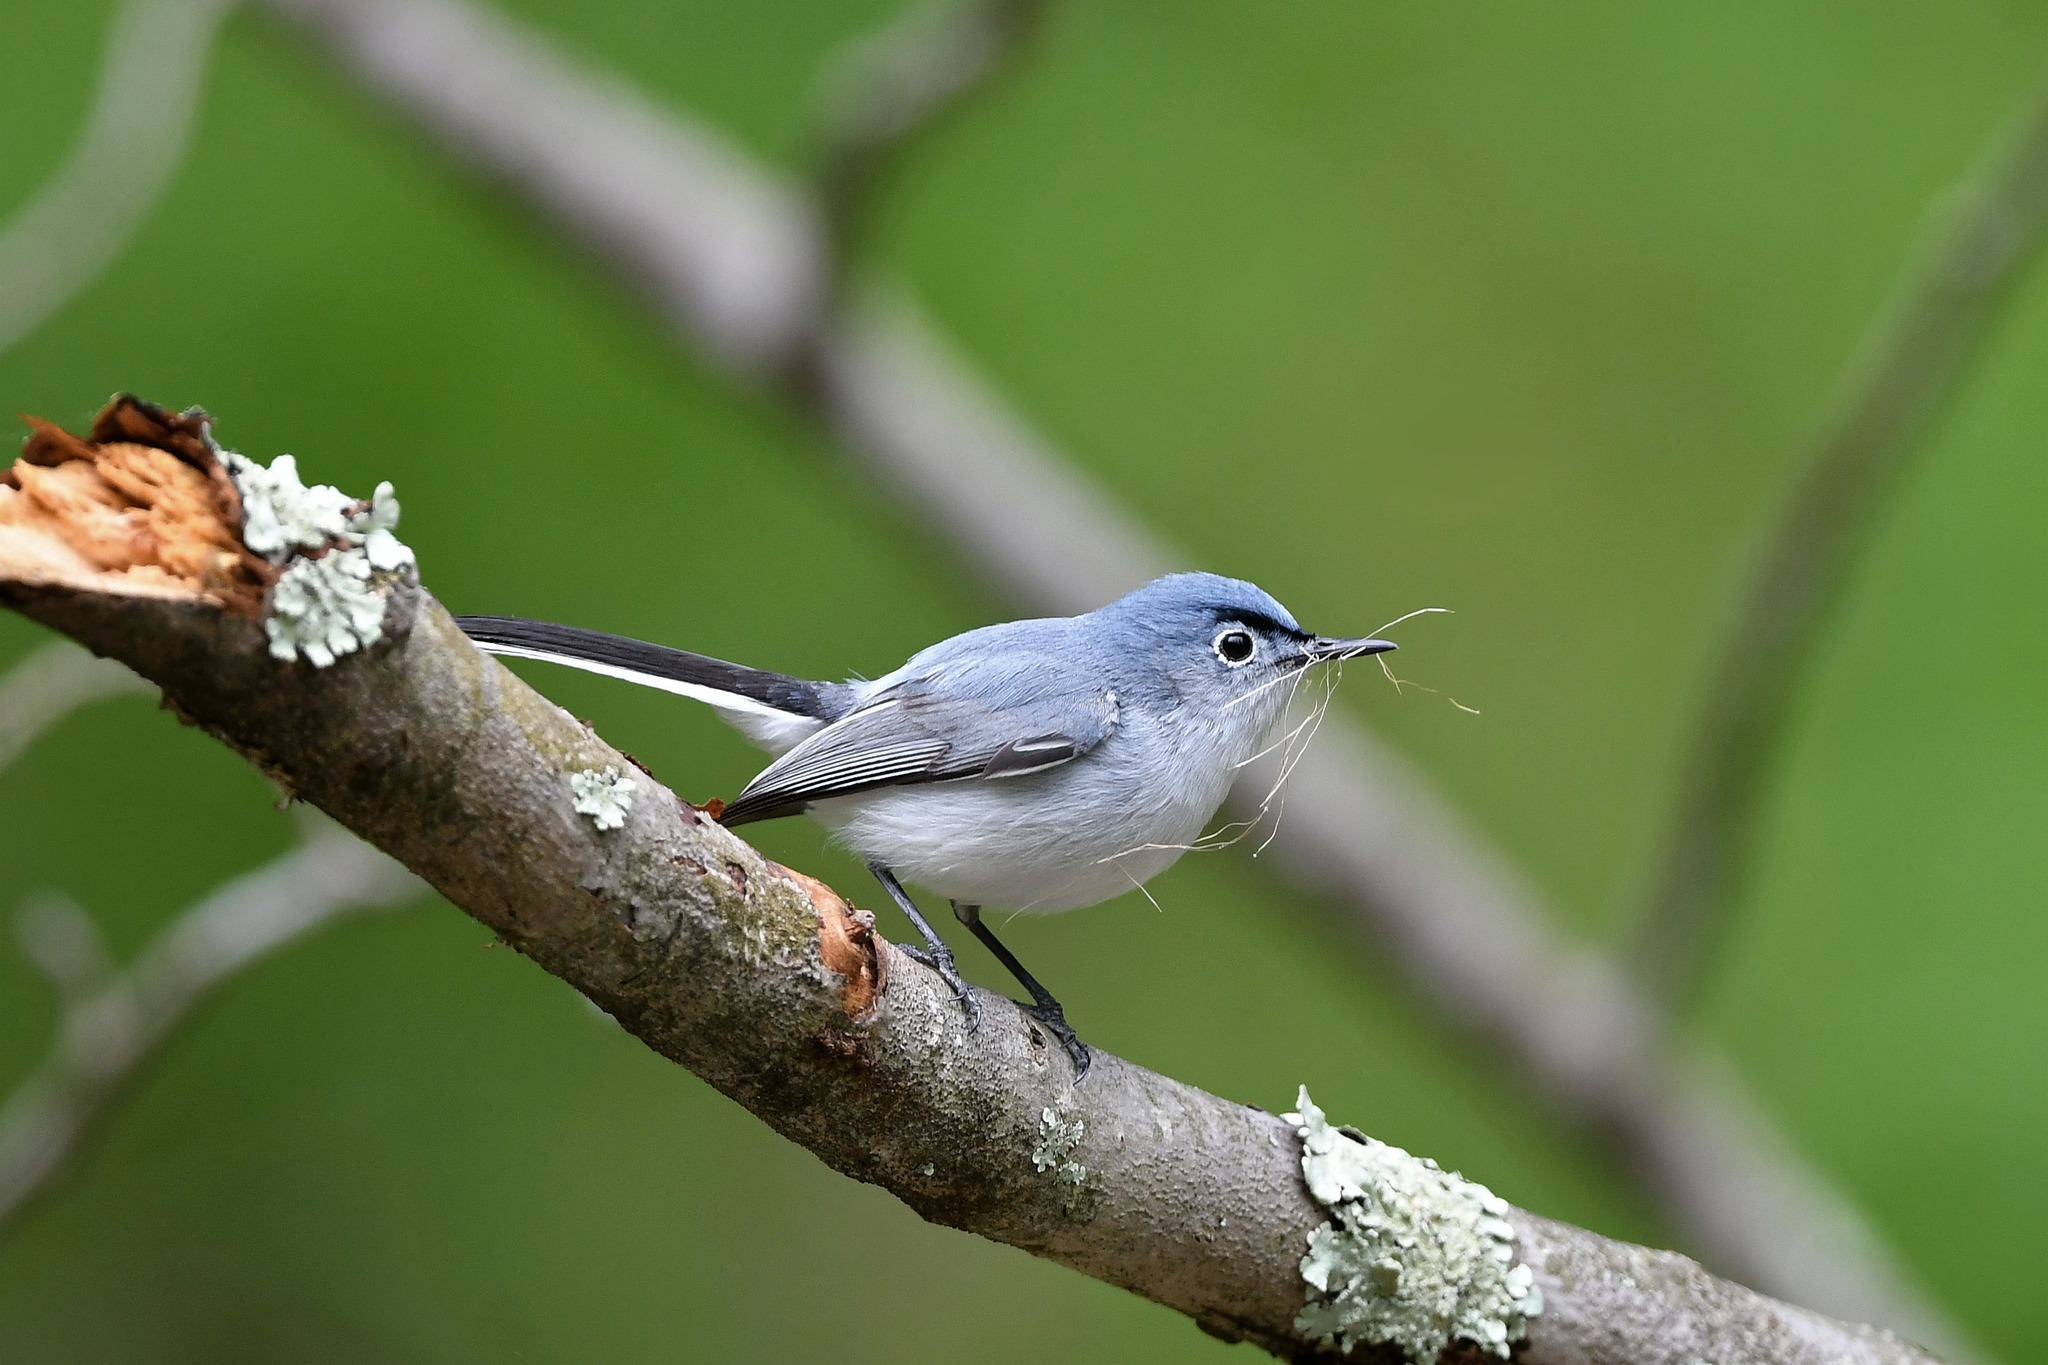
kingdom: Animalia
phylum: Chordata
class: Aves
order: Passeriformes
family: Polioptilidae
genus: Polioptila
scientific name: Polioptila caerulea
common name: Blue-gray gnatcatcher
